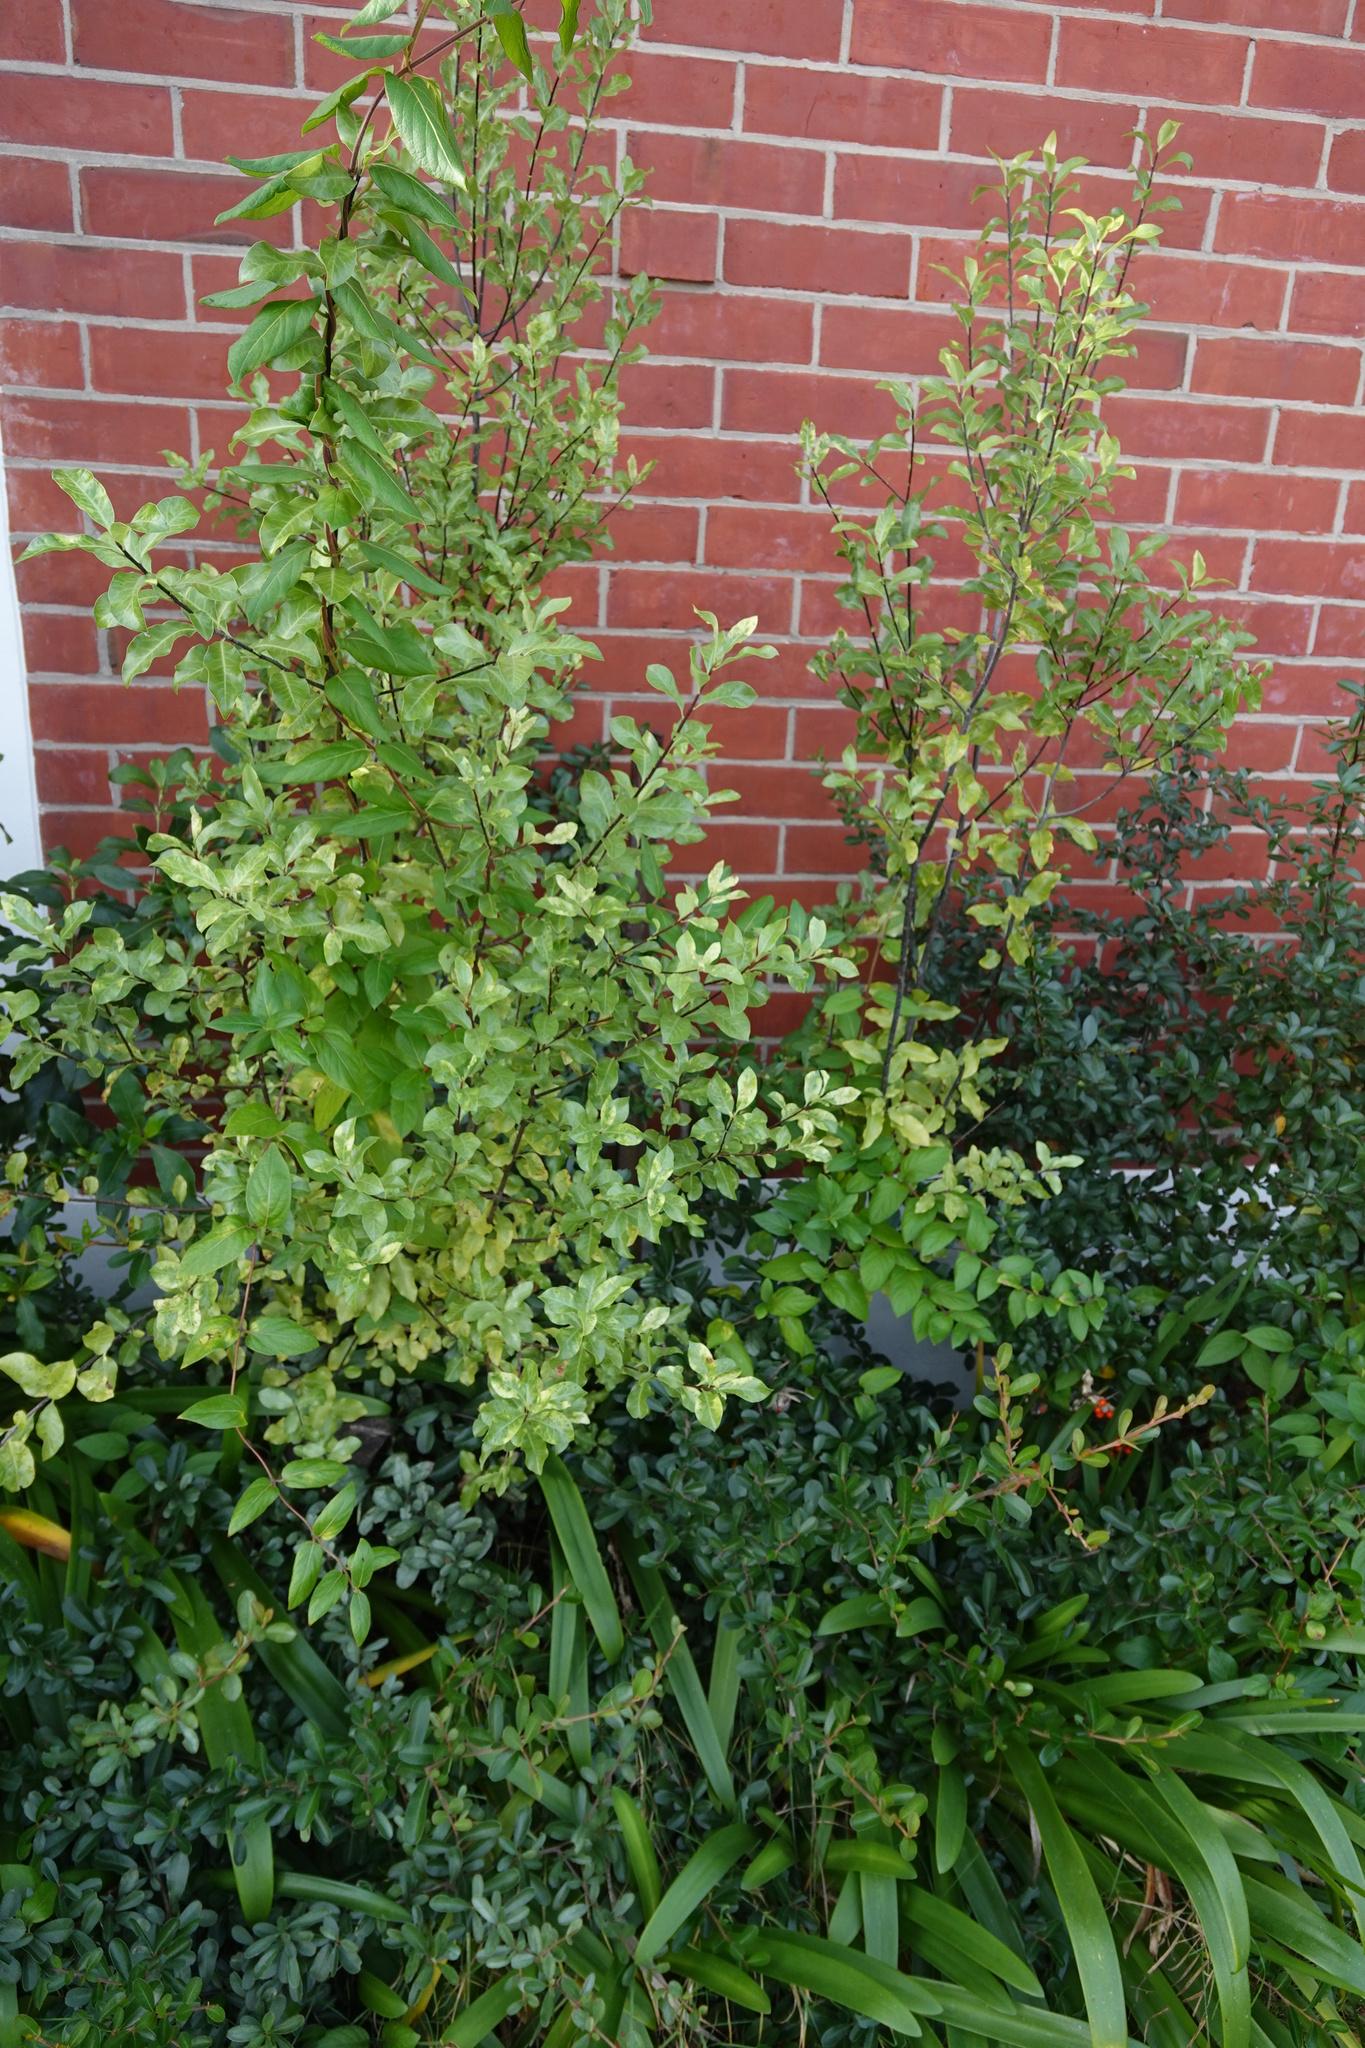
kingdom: Plantae
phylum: Tracheophyta
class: Magnoliopsida
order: Apiales
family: Pittosporaceae
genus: Pittosporum
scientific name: Pittosporum tenuifolium
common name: Kohuhu
